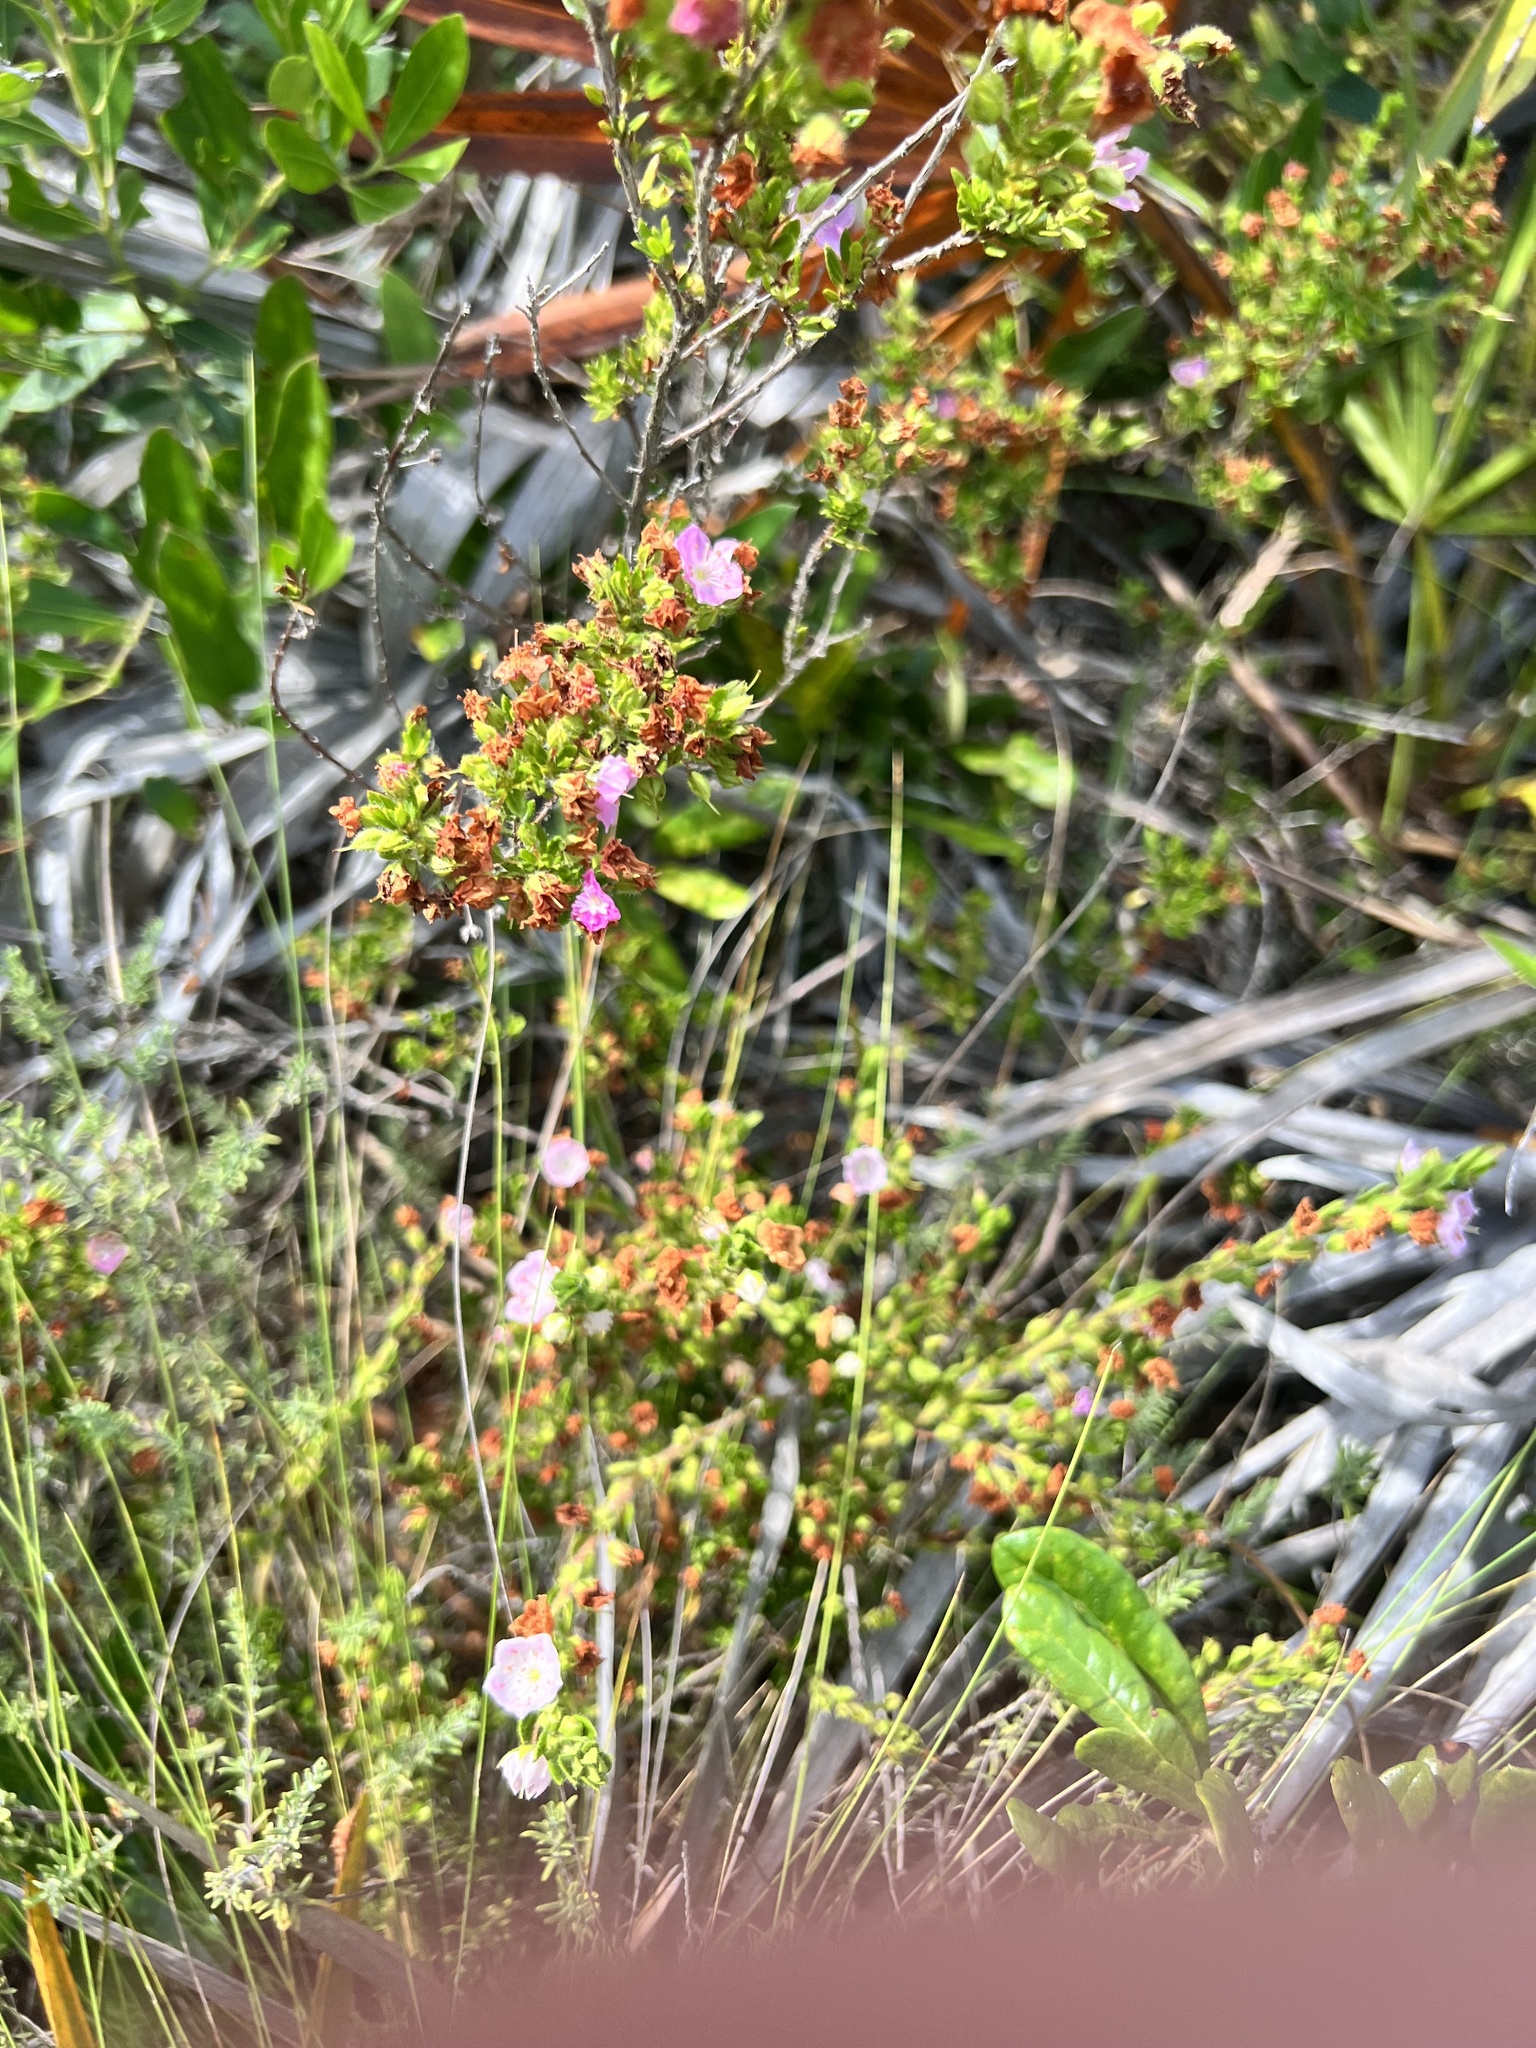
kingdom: Plantae
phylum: Tracheophyta
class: Magnoliopsida
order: Ericales
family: Ericaceae
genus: Kalmia
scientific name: Kalmia hirsuta
